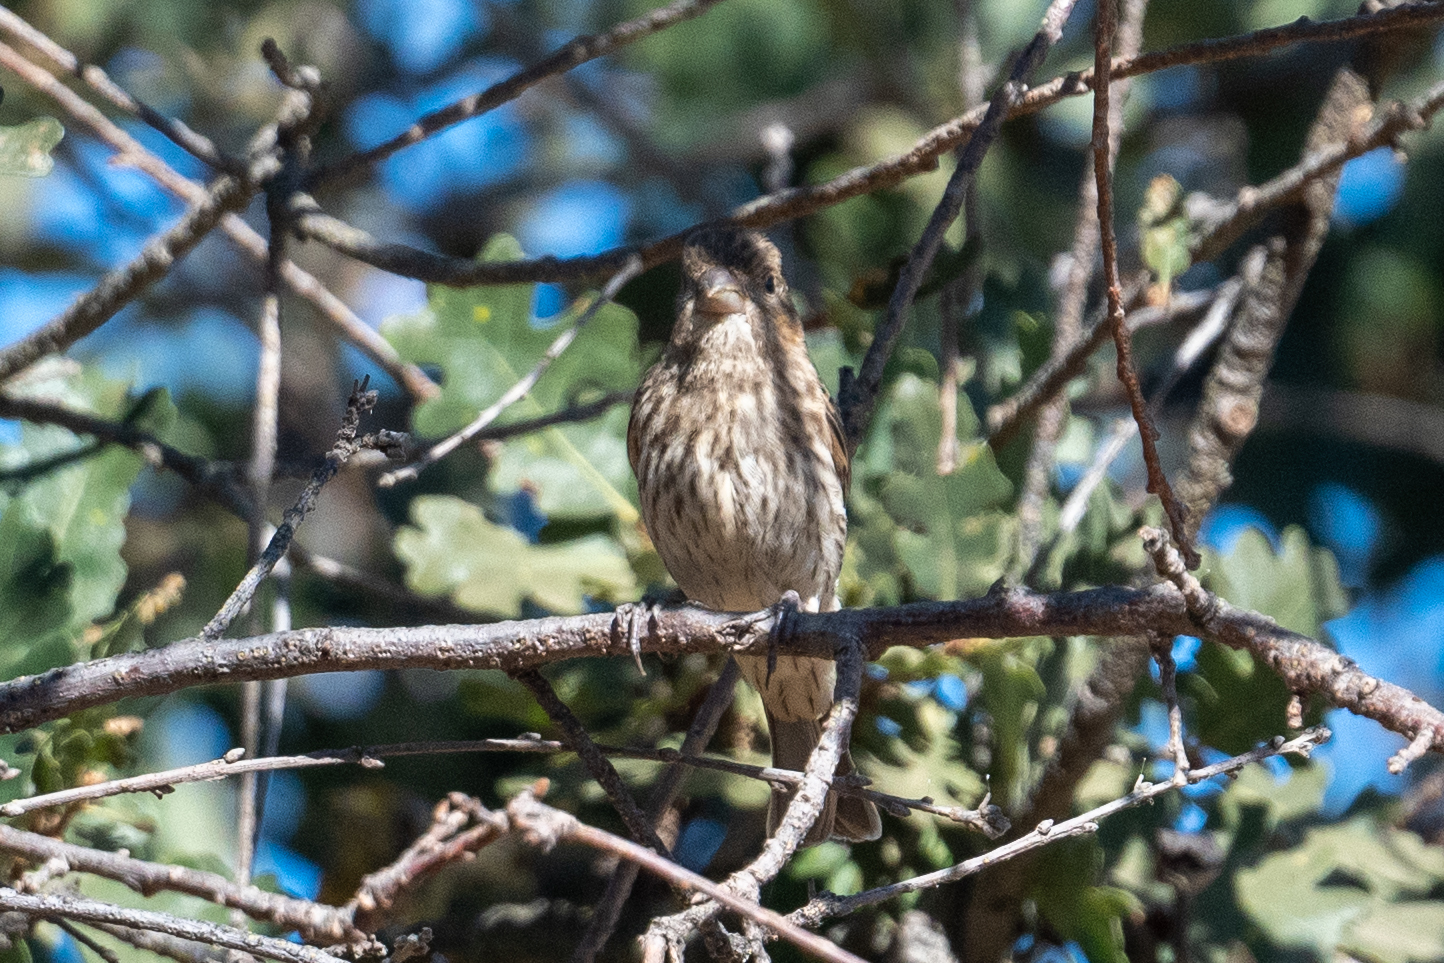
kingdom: Animalia
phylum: Chordata
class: Aves
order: Passeriformes
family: Fringillidae
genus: Haemorhous
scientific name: Haemorhous mexicanus
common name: House finch
